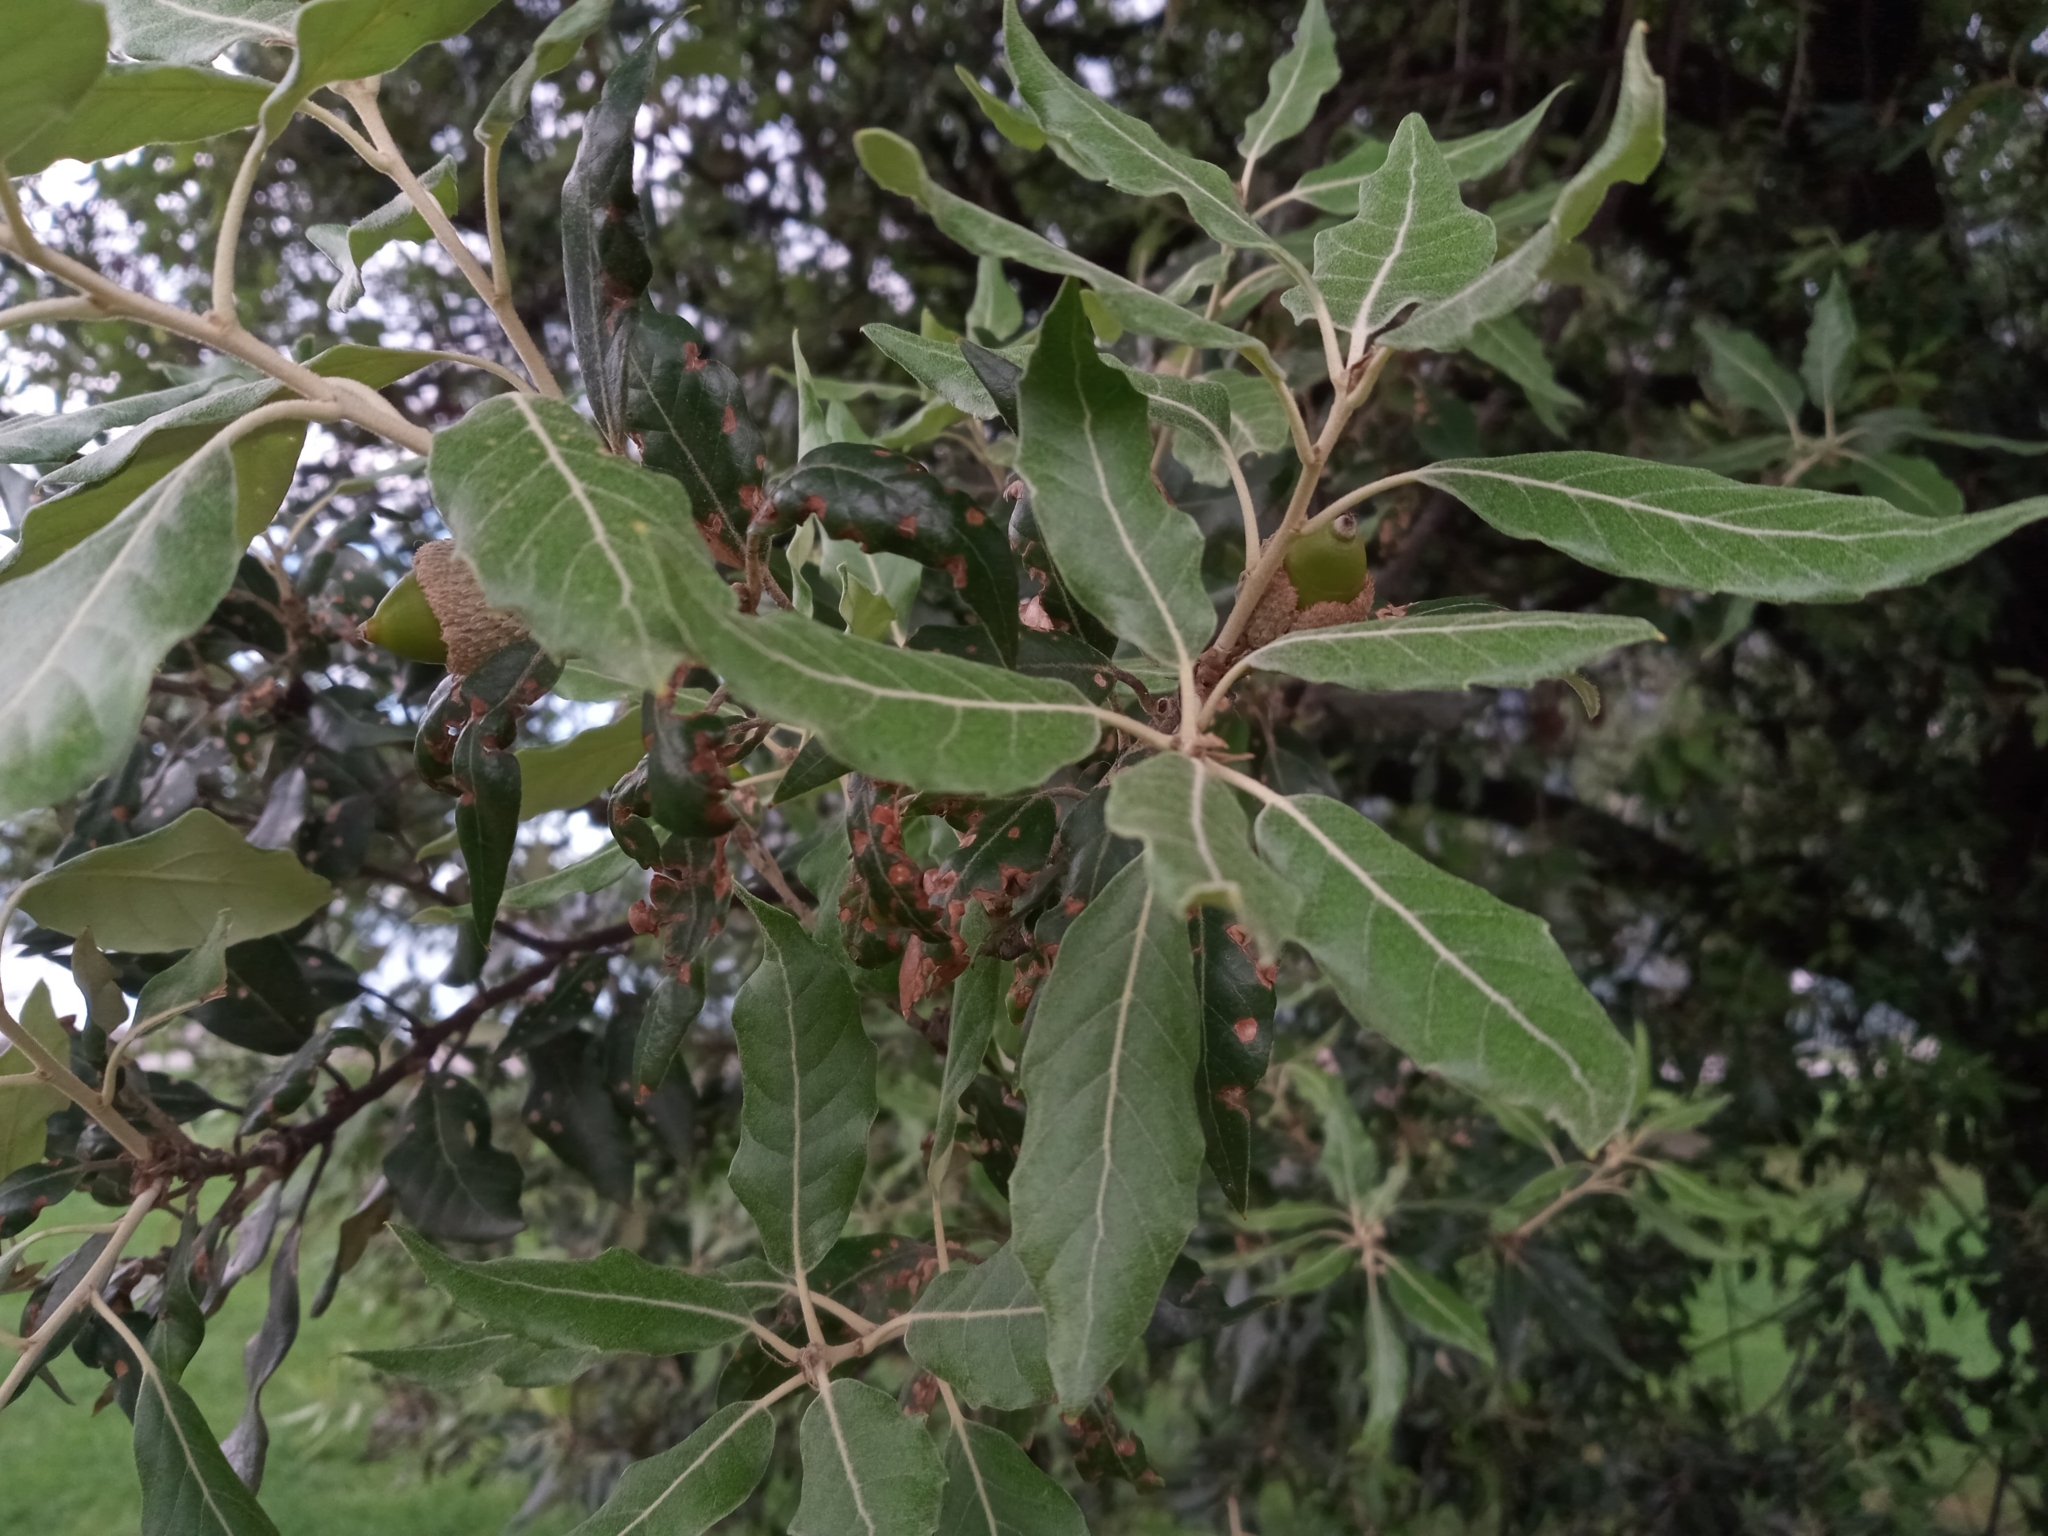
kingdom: Plantae
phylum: Tracheophyta
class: Magnoliopsida
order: Fagales
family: Fagaceae
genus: Quercus
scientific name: Quercus ilex
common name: Evergreen oak
